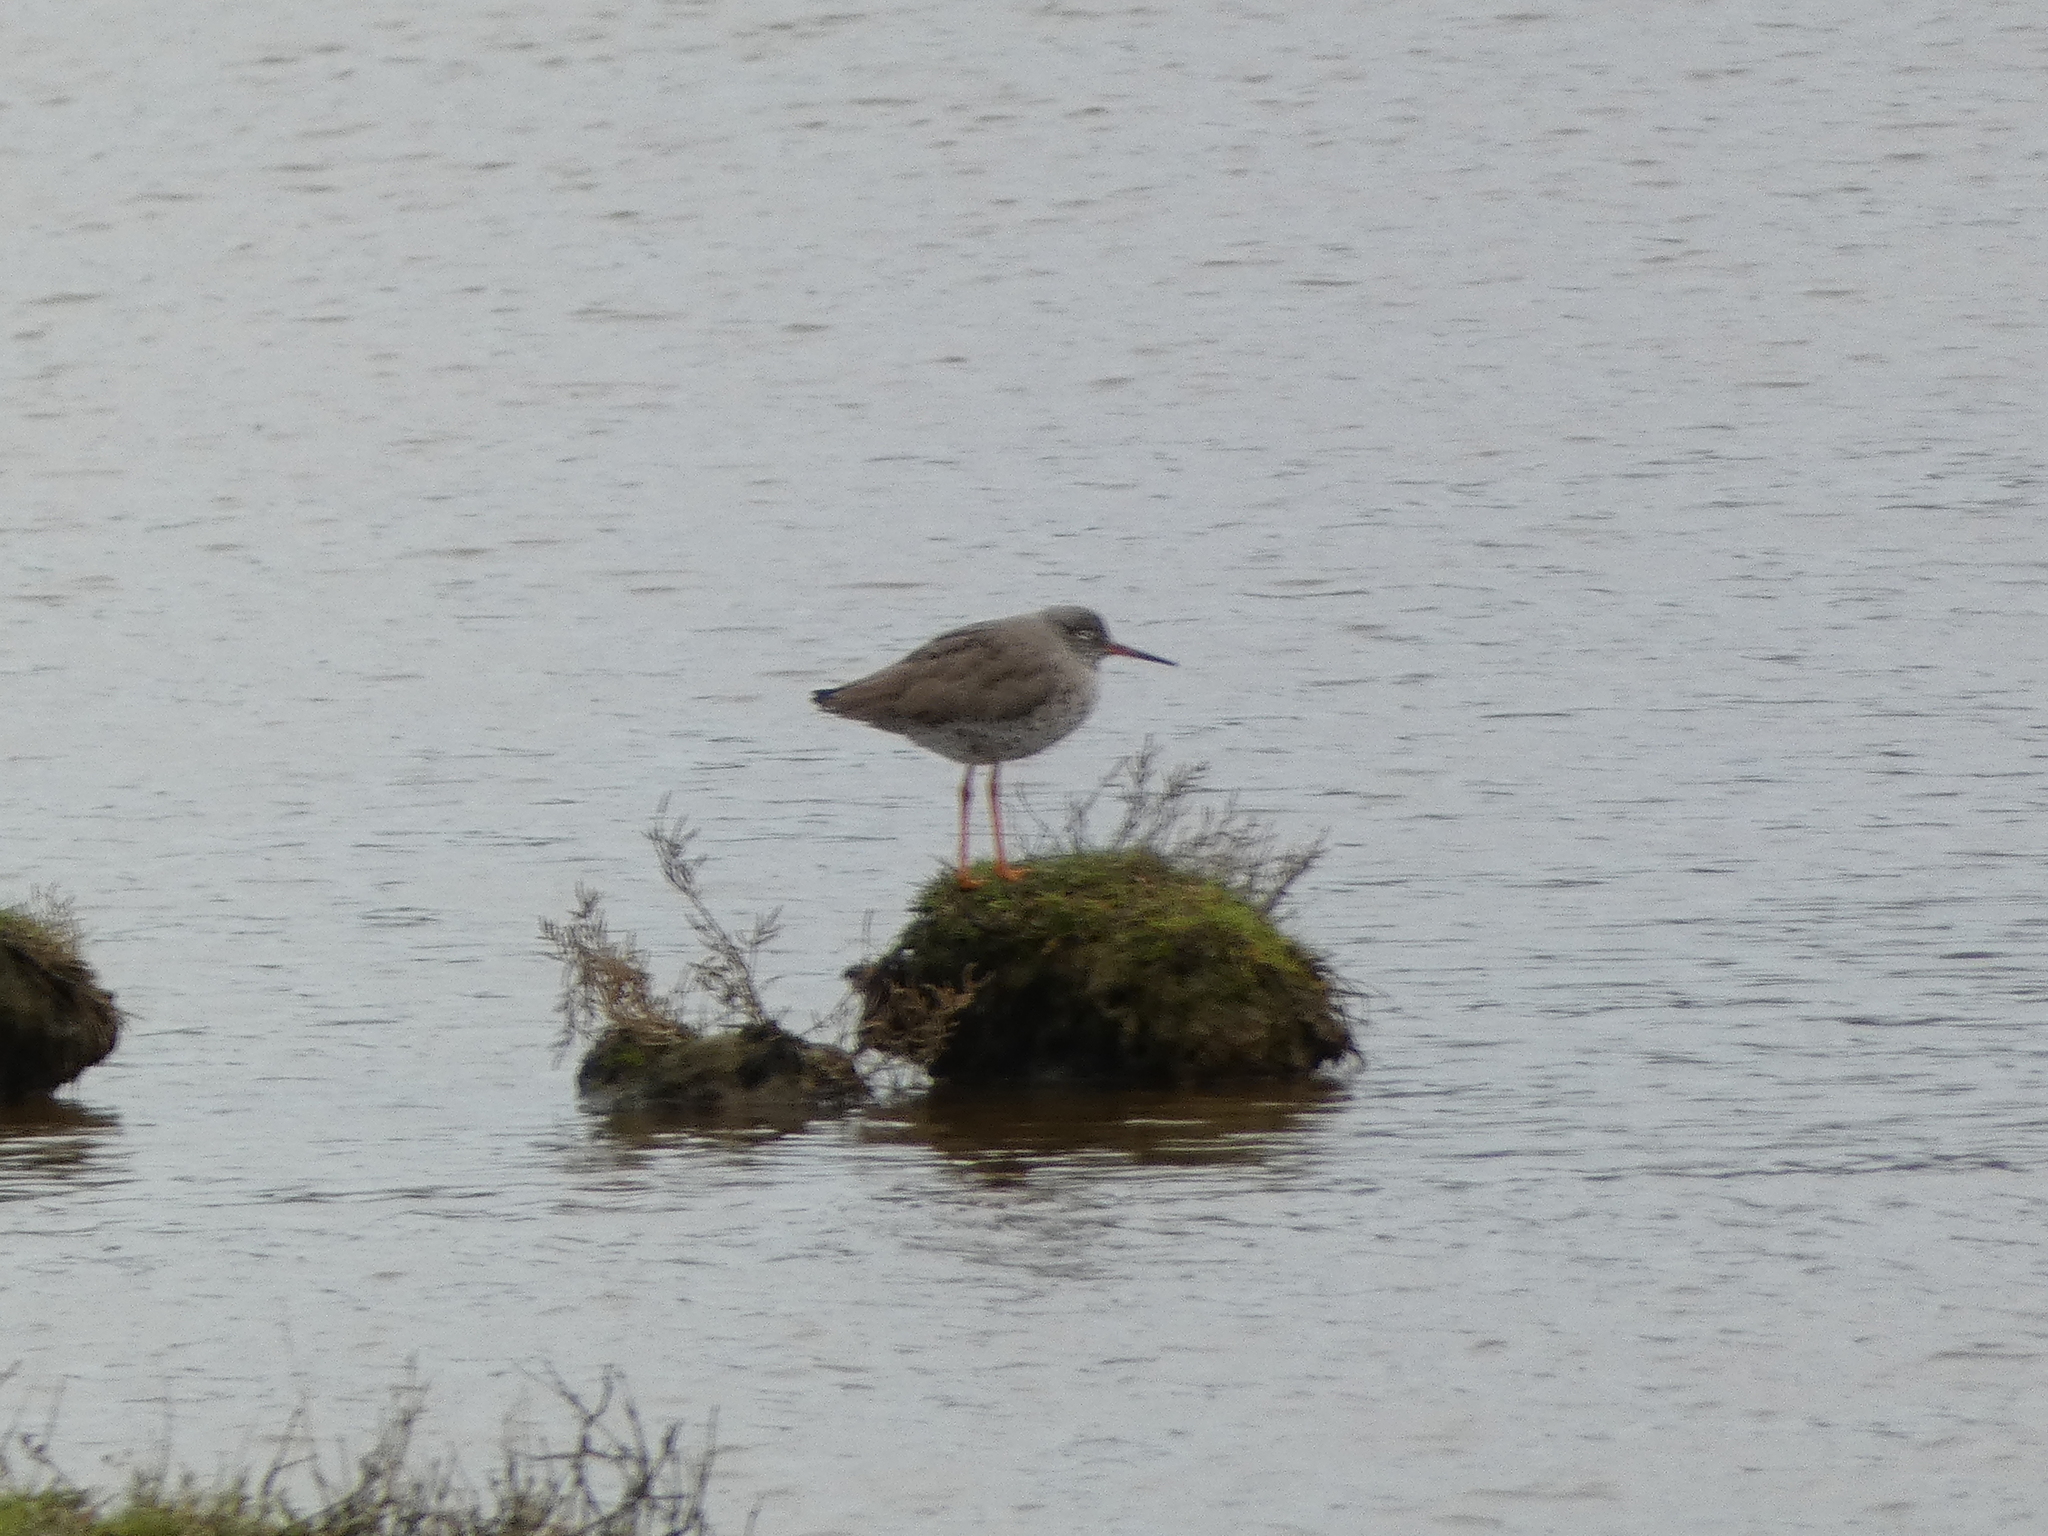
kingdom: Animalia
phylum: Chordata
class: Aves
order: Charadriiformes
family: Scolopacidae
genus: Tringa
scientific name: Tringa totanus
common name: Common redshank
